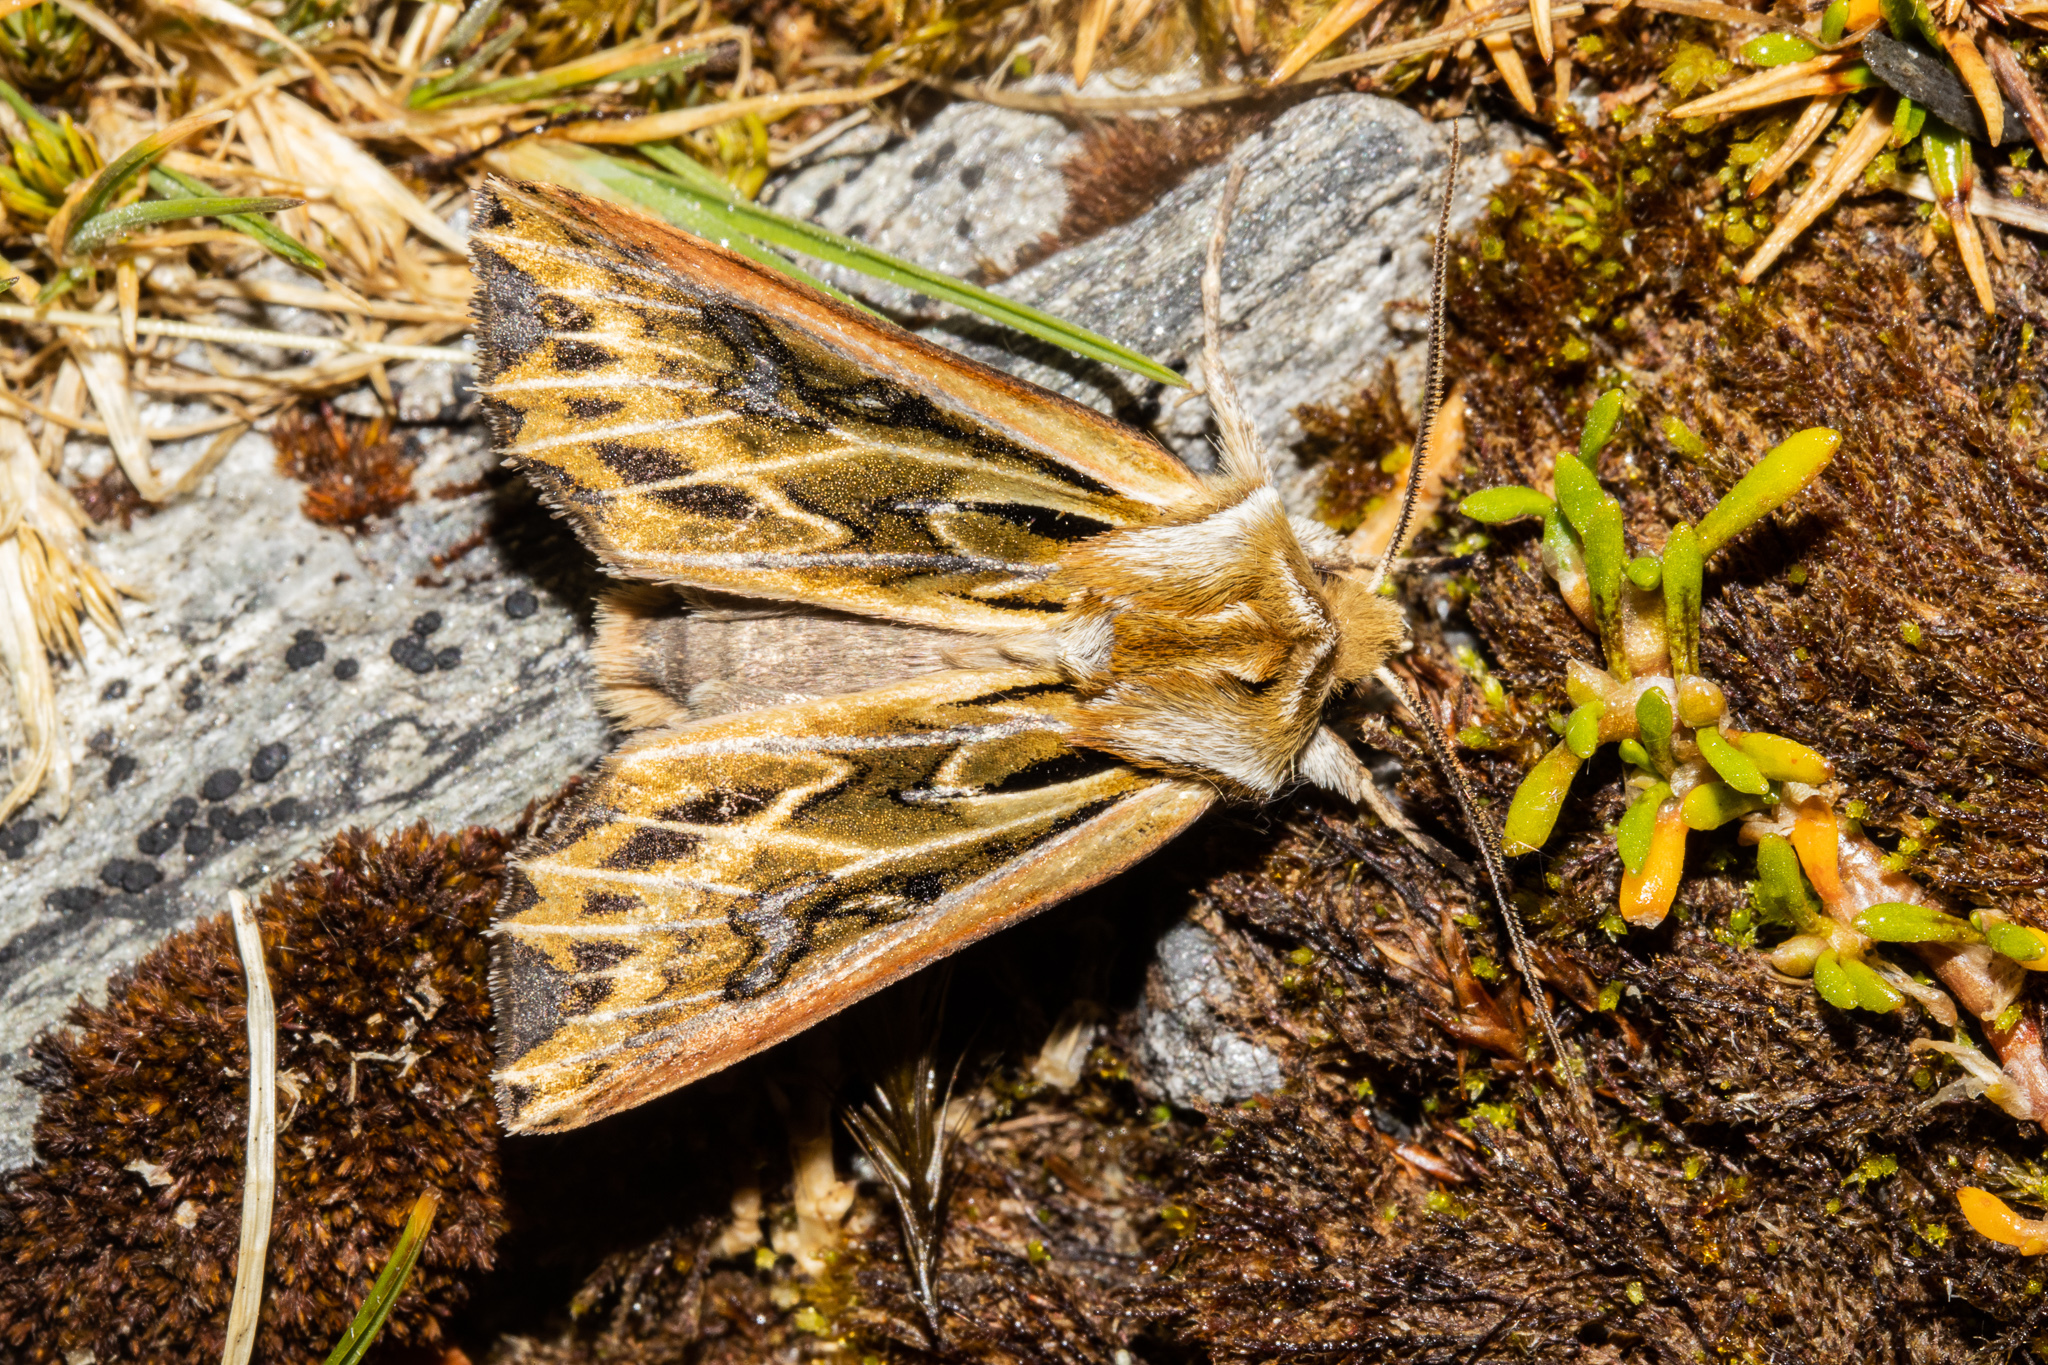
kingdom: Animalia
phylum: Arthropoda
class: Insecta
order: Lepidoptera
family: Noctuidae
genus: Ichneutica
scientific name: Ichneutica
